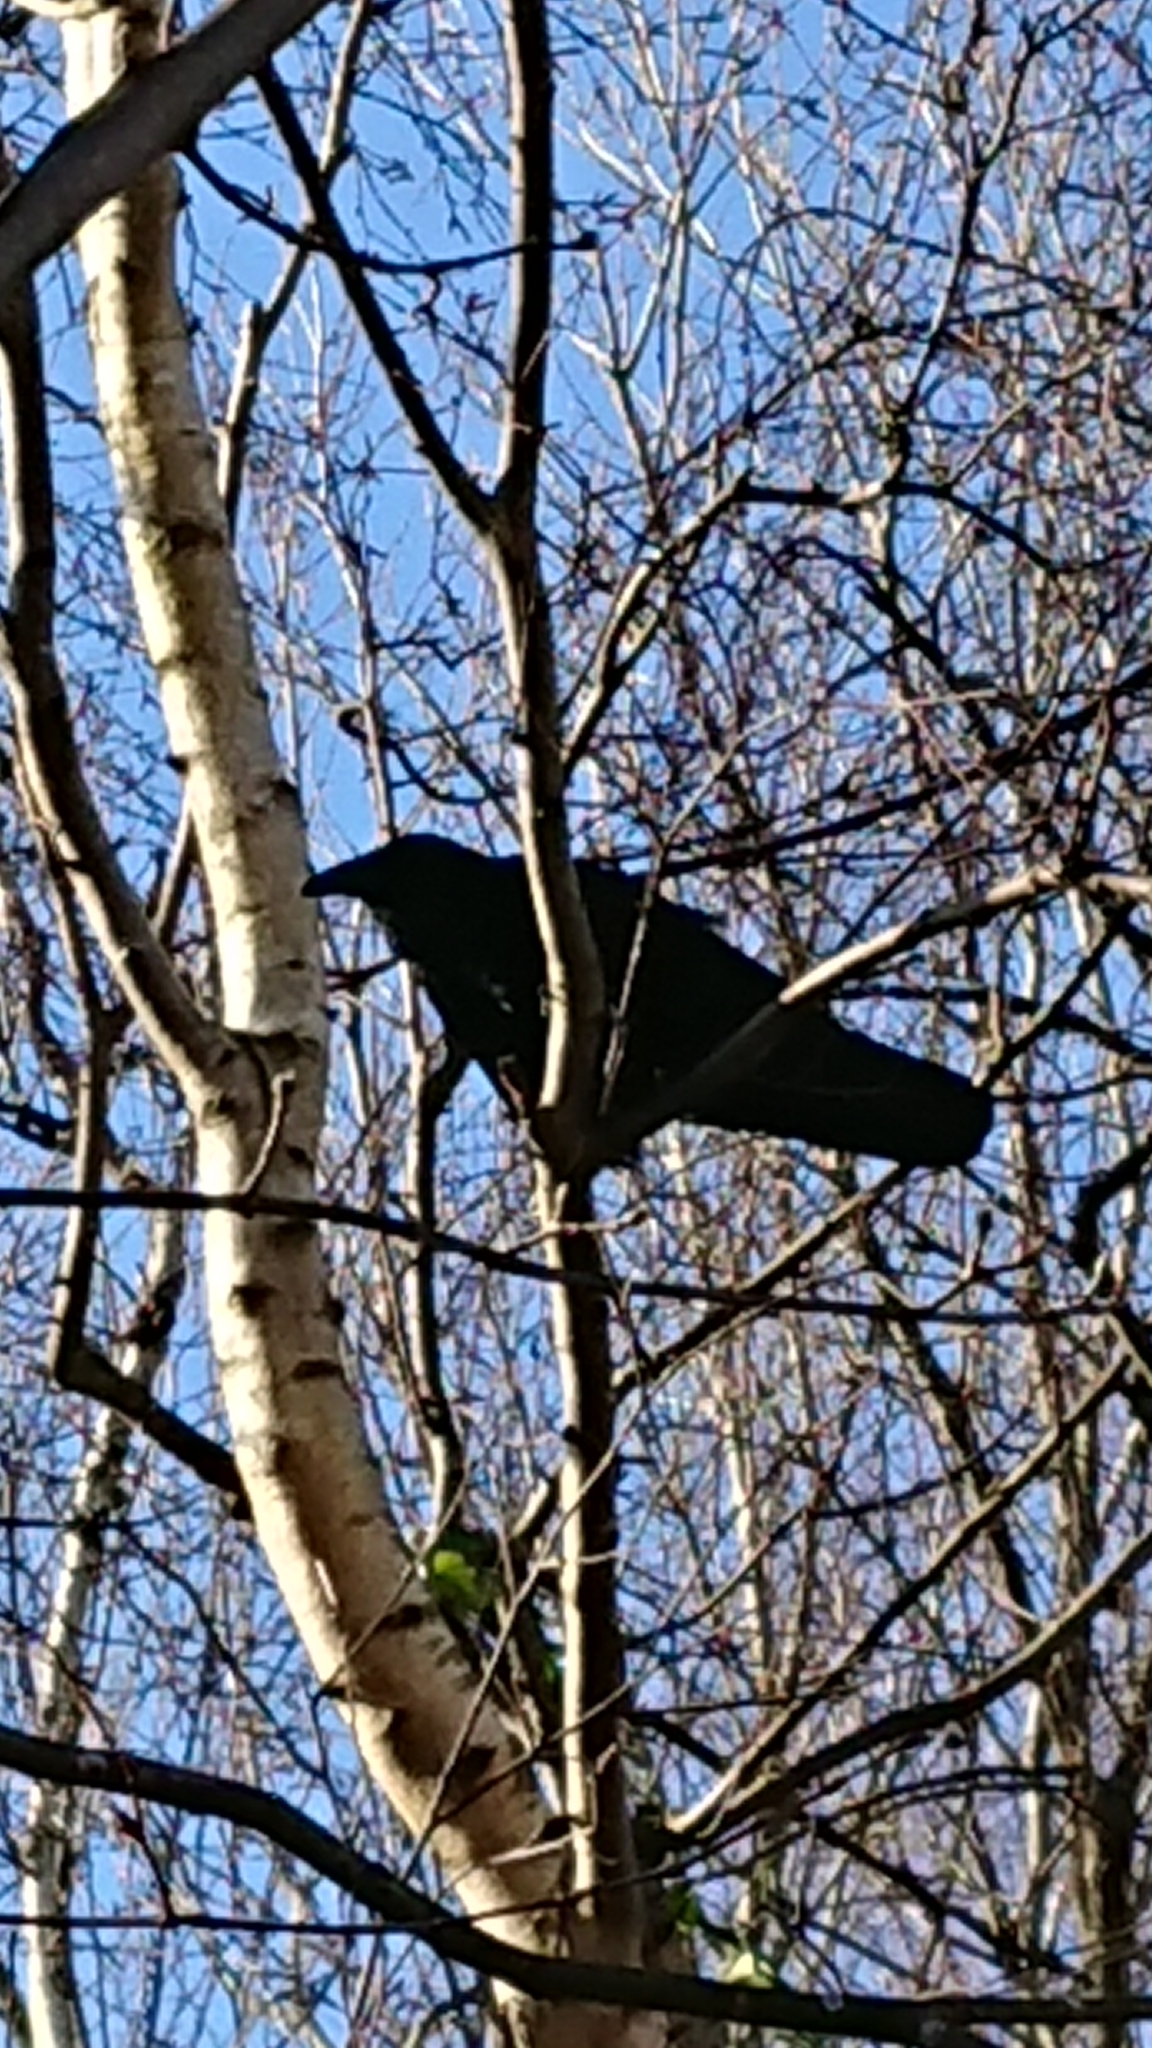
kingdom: Animalia
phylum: Chordata
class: Aves
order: Passeriformes
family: Corvidae
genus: Corvus
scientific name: Corvus corone
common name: Carrion crow
